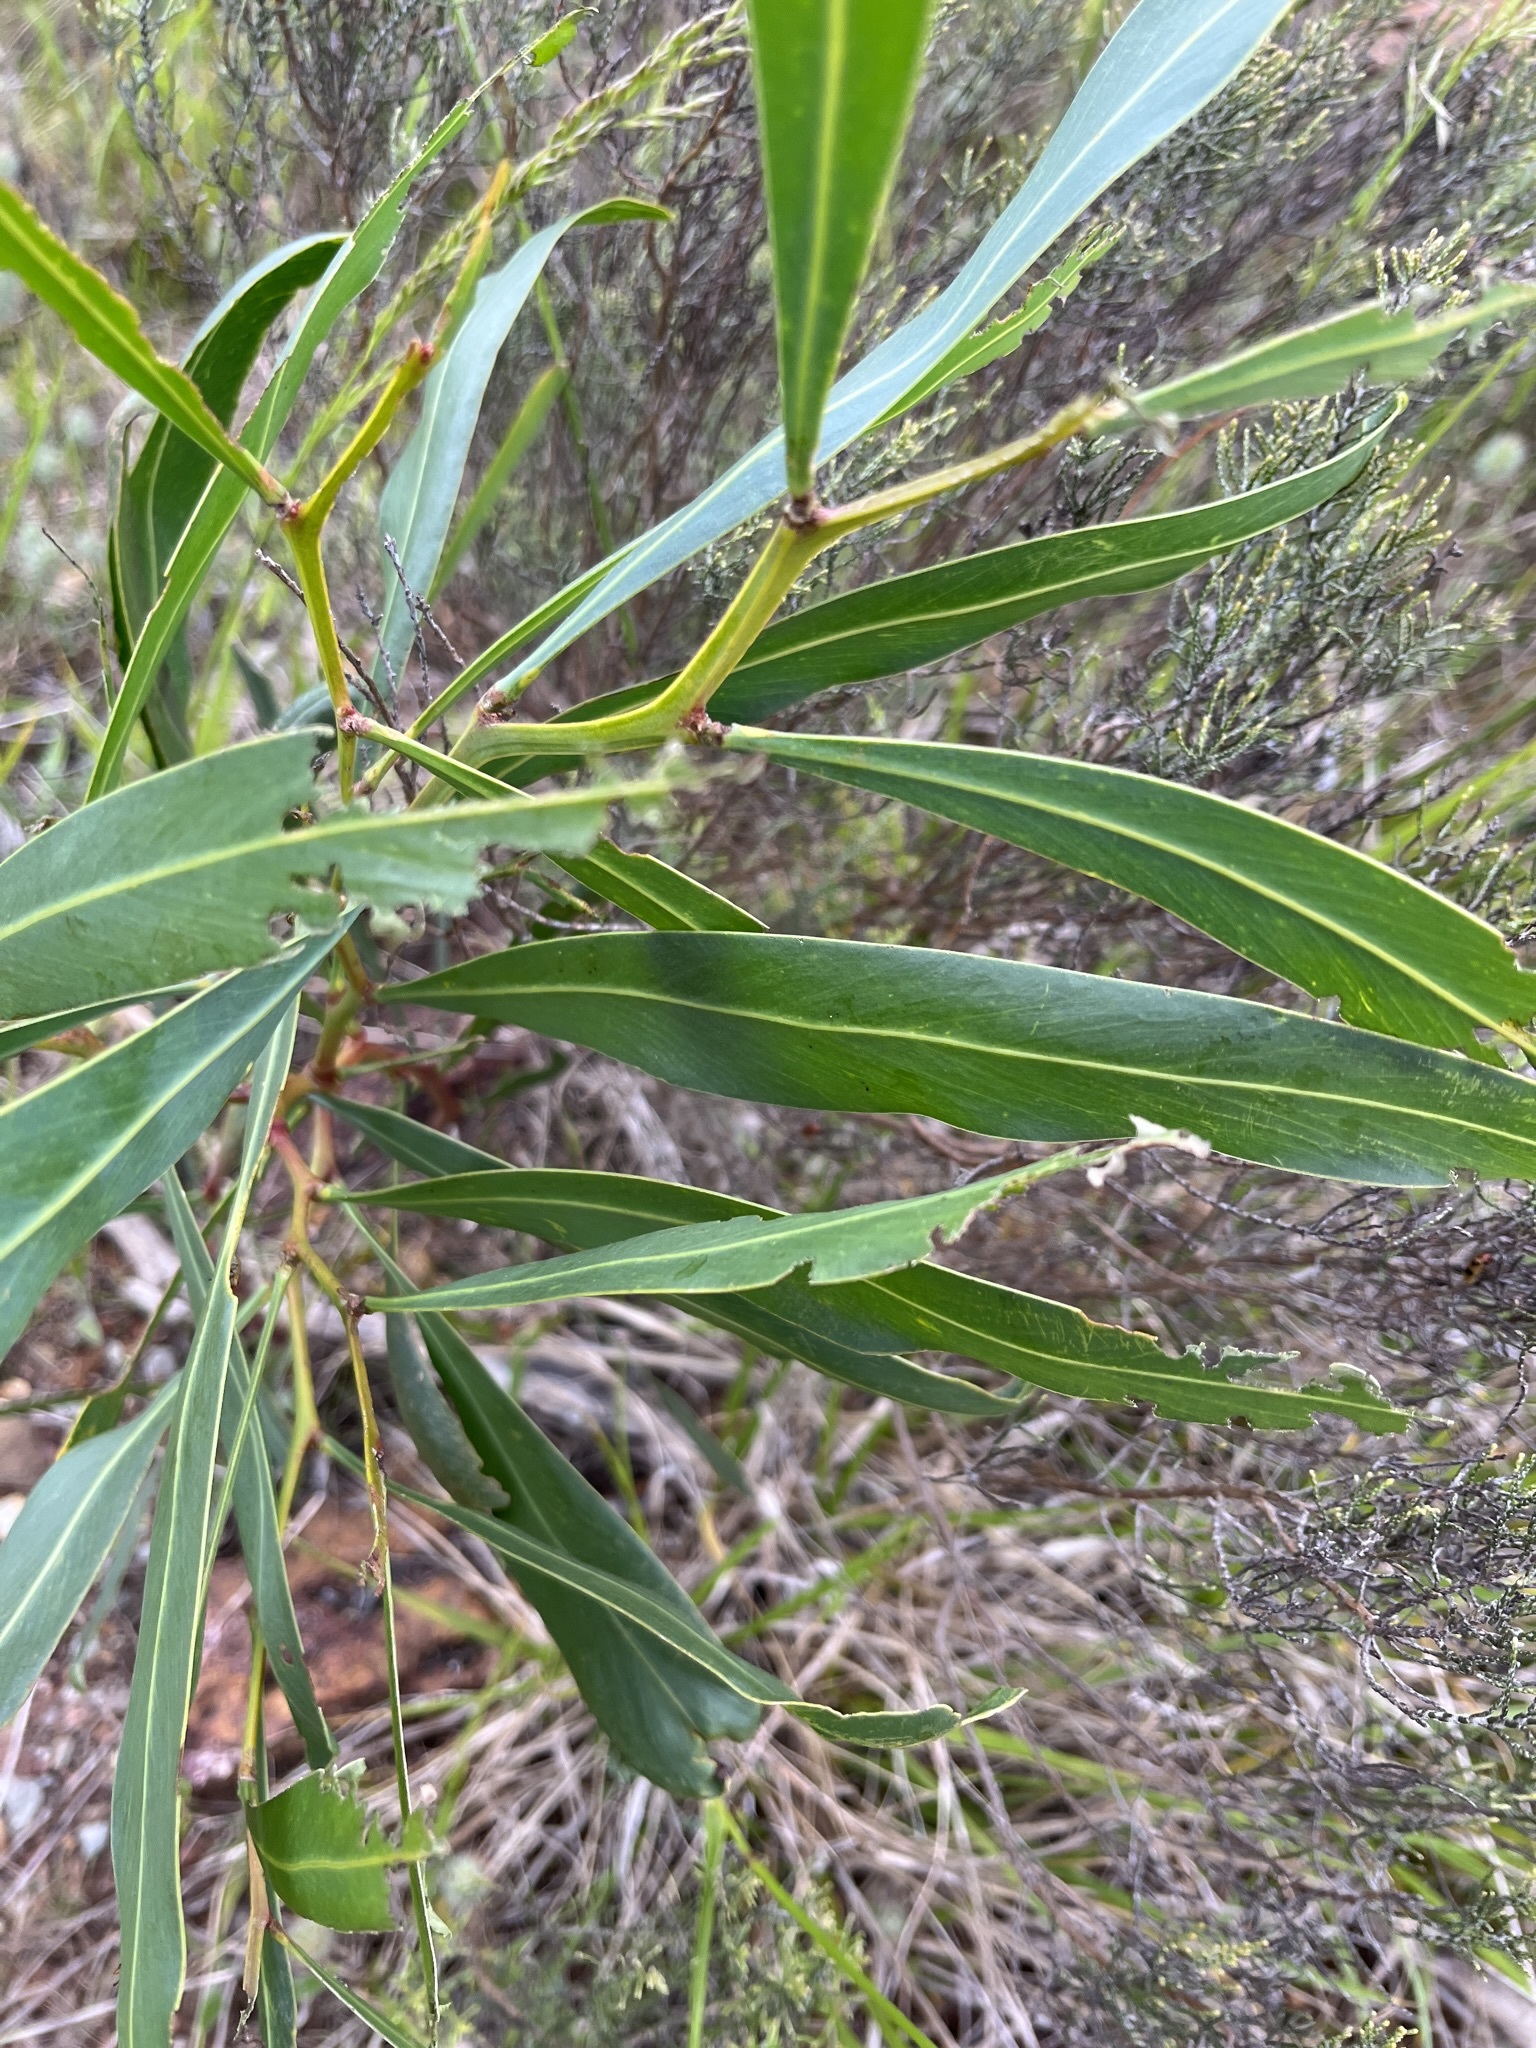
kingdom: Plantae
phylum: Tracheophyta
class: Magnoliopsida
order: Fabales
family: Fabaceae
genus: Acacia
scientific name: Acacia saligna
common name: Orange wattle
